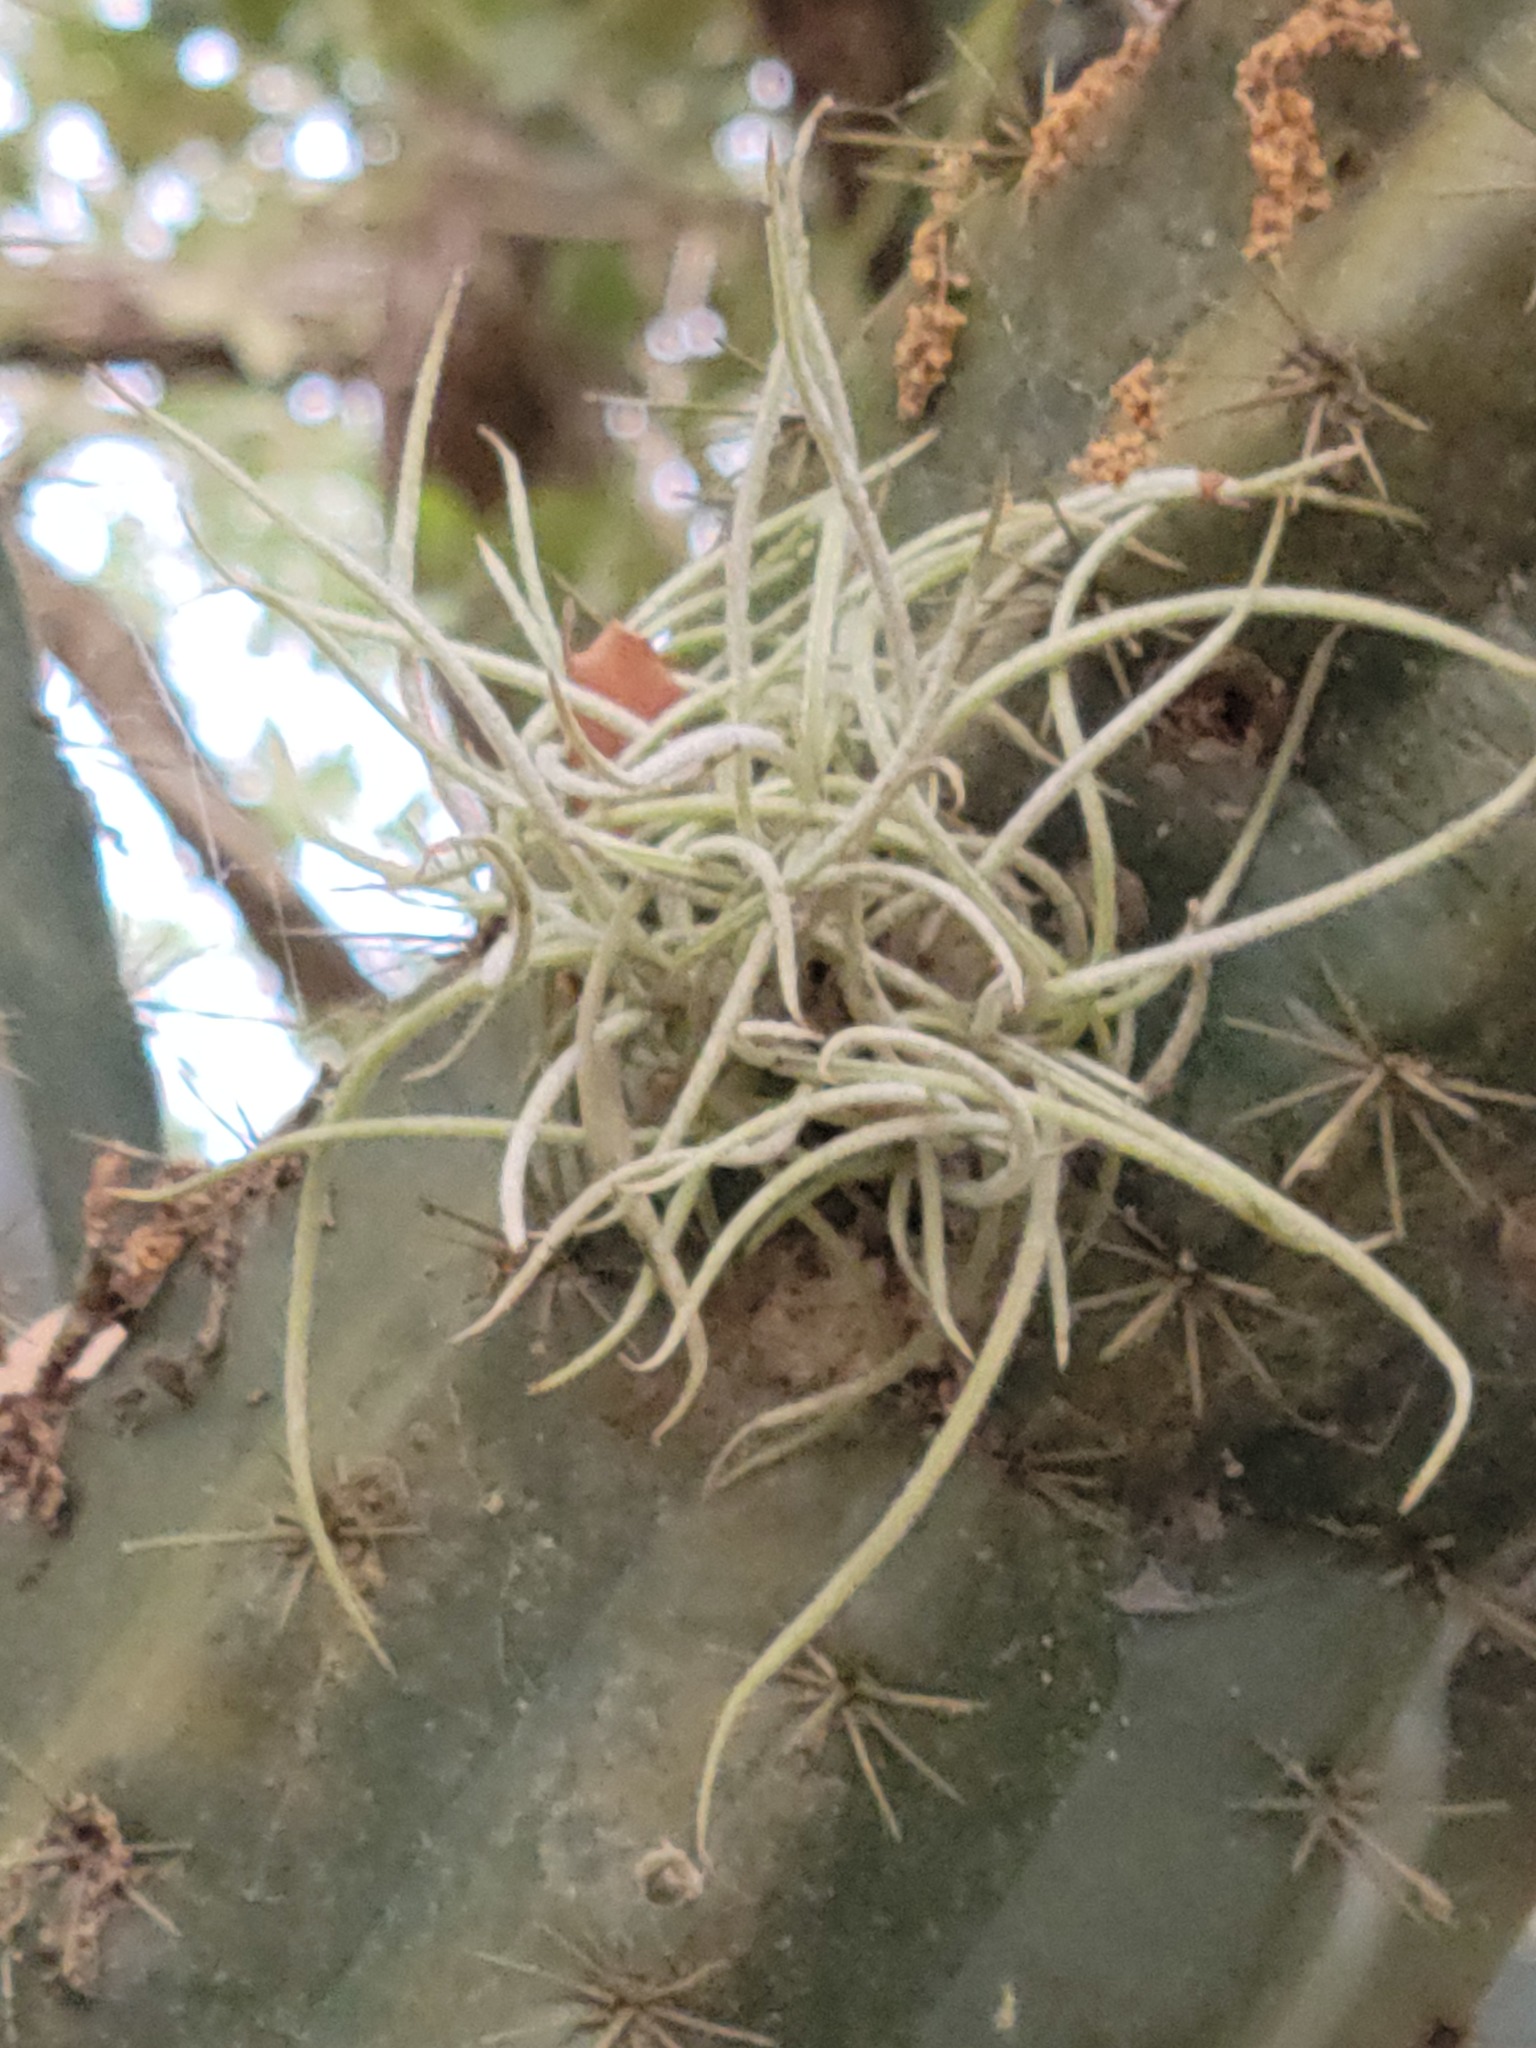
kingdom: Plantae
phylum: Tracheophyta
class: Liliopsida
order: Poales
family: Bromeliaceae
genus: Tillandsia
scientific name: Tillandsia recurvata
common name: Small ballmoss
